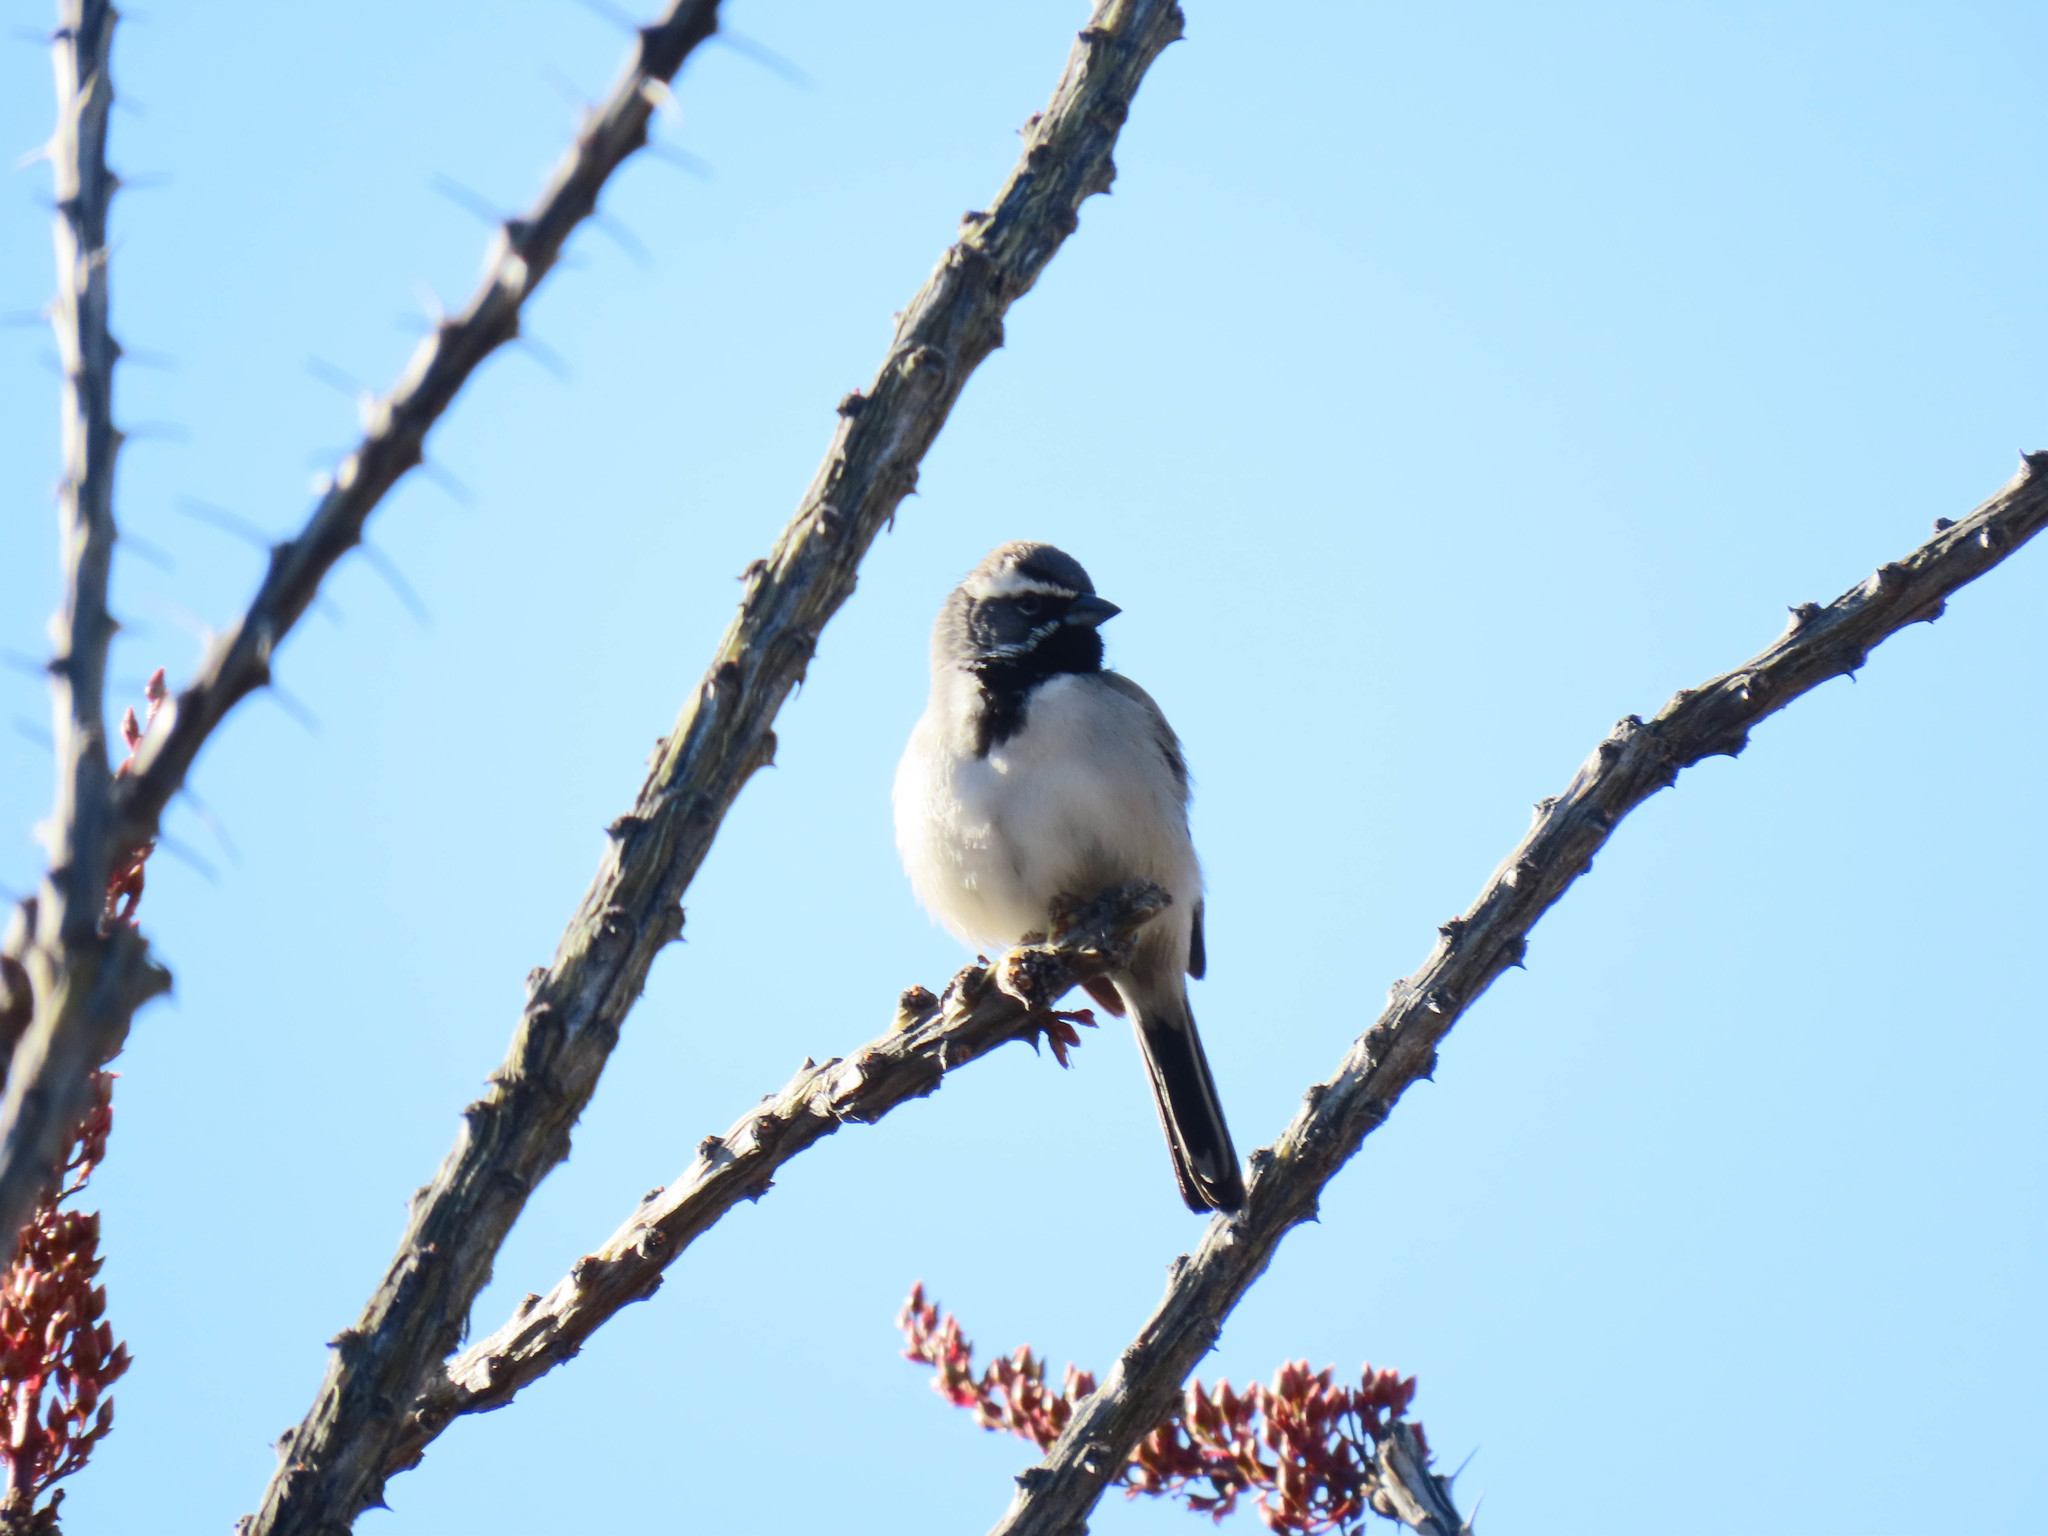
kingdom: Animalia
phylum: Chordata
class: Aves
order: Passeriformes
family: Passerellidae
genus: Amphispiza
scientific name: Amphispiza bilineata
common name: Black-throated sparrow
